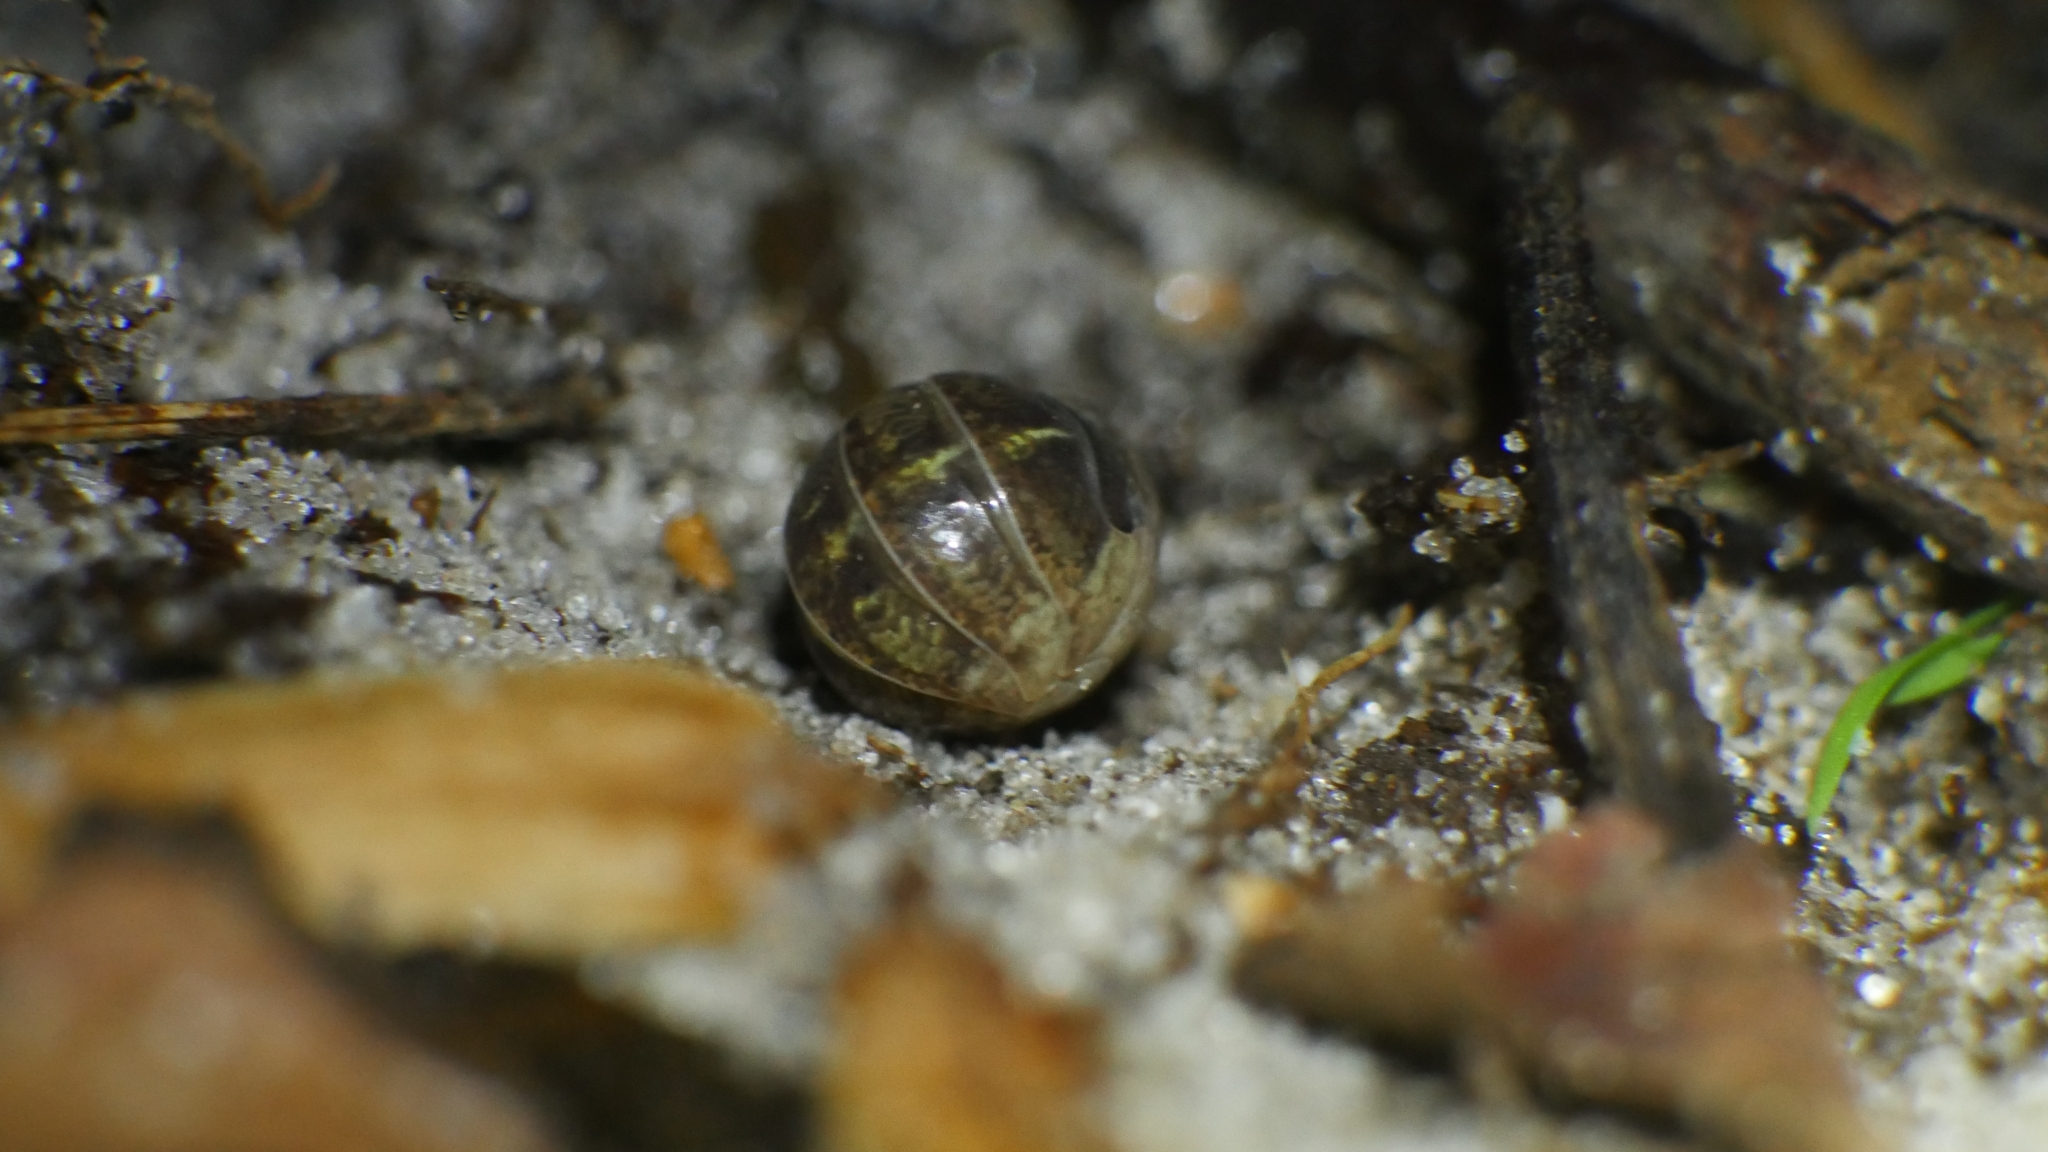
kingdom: Animalia
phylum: Arthropoda
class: Malacostraca
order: Isopoda
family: Armadillidiidae
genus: Armadillidium
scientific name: Armadillidium vulgare
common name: Common pill woodlouse
